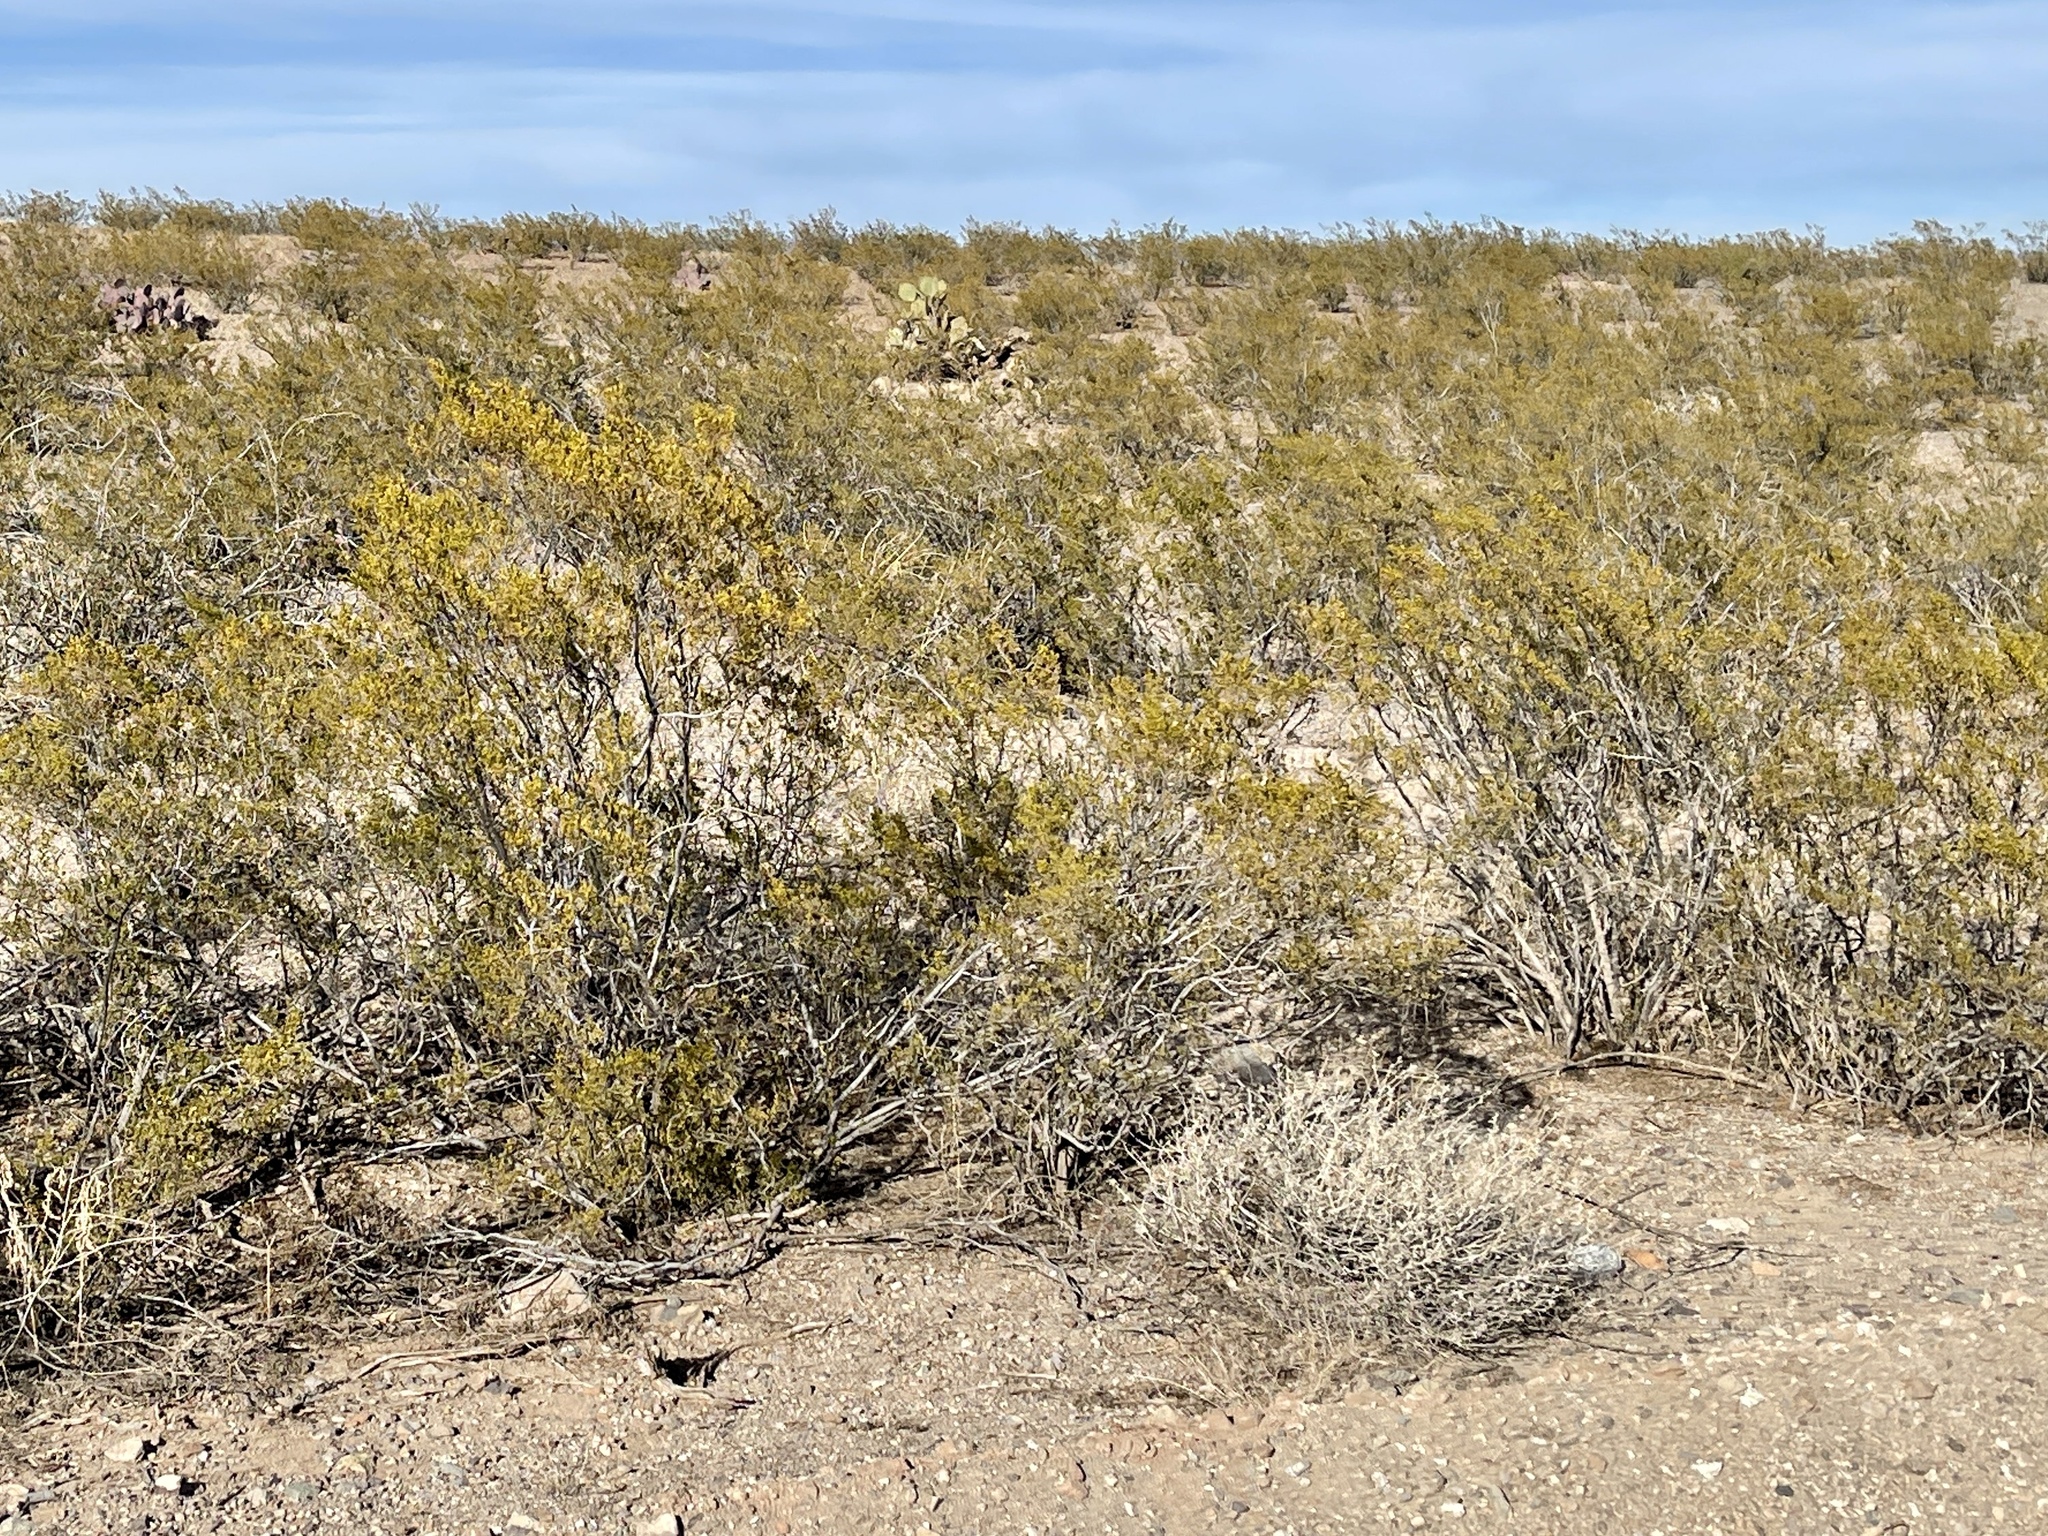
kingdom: Plantae
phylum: Tracheophyta
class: Magnoliopsida
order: Zygophyllales
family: Zygophyllaceae
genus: Larrea
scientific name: Larrea tridentata
